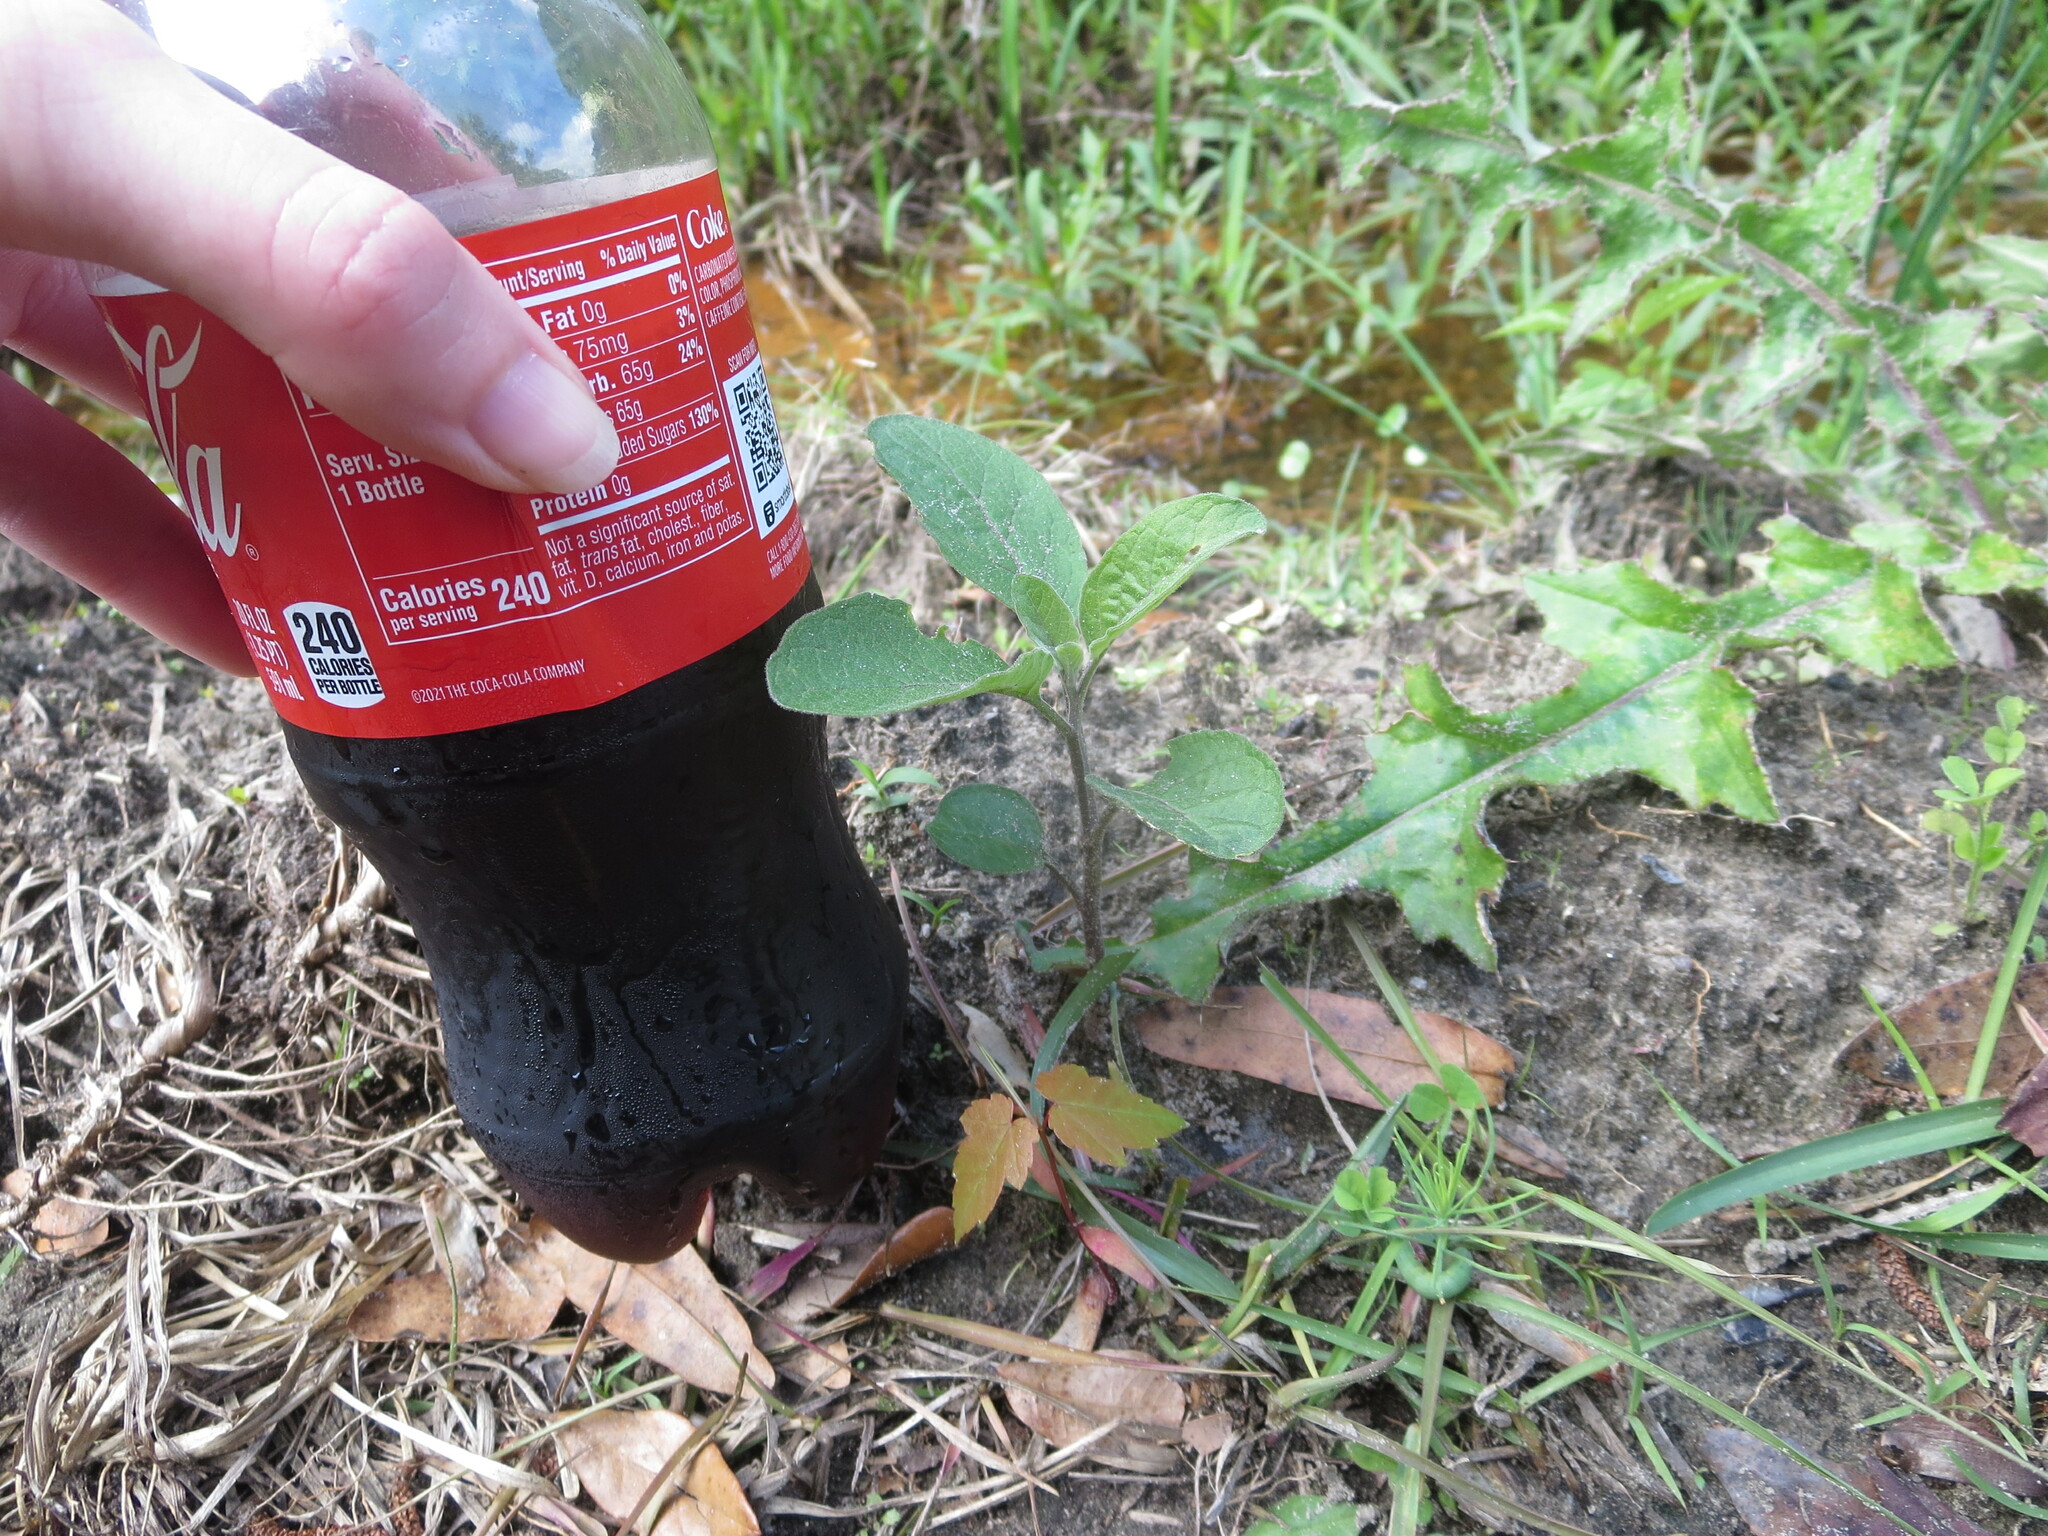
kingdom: Plantae
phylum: Tracheophyta
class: Magnoliopsida
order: Solanales
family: Solanaceae
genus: Physalis
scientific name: Physalis walteri
